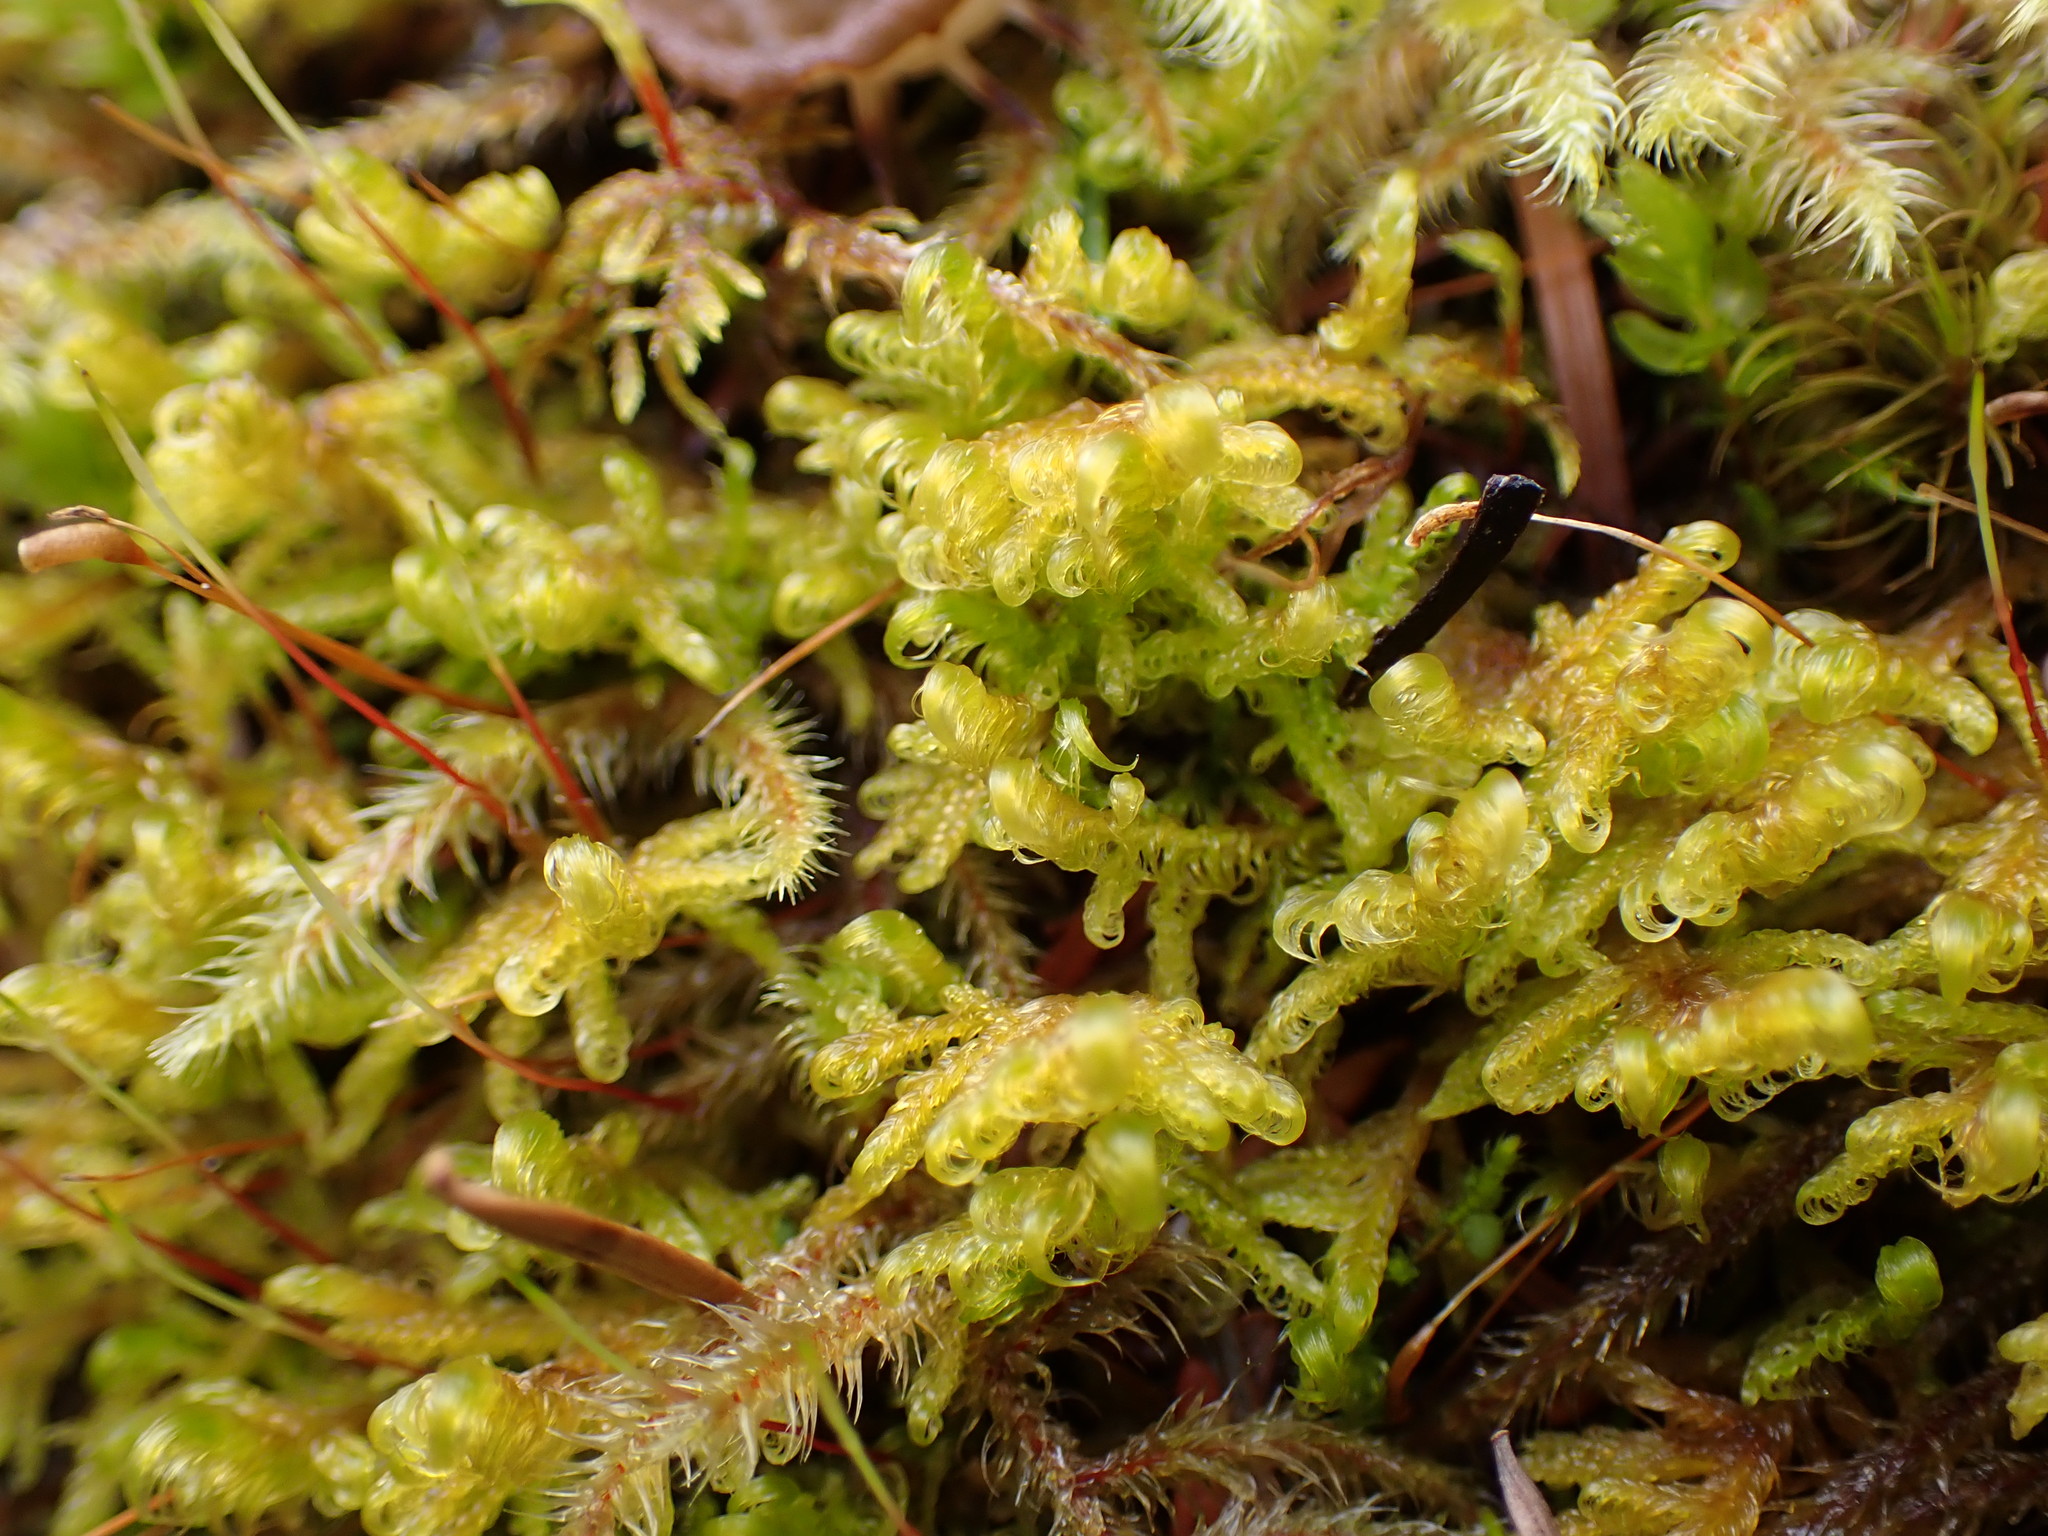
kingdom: Plantae
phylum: Bryophyta
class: Bryopsida
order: Hypnales
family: Scorpidiaceae
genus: Sanionia
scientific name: Sanionia uncinata
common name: Sickle moss
